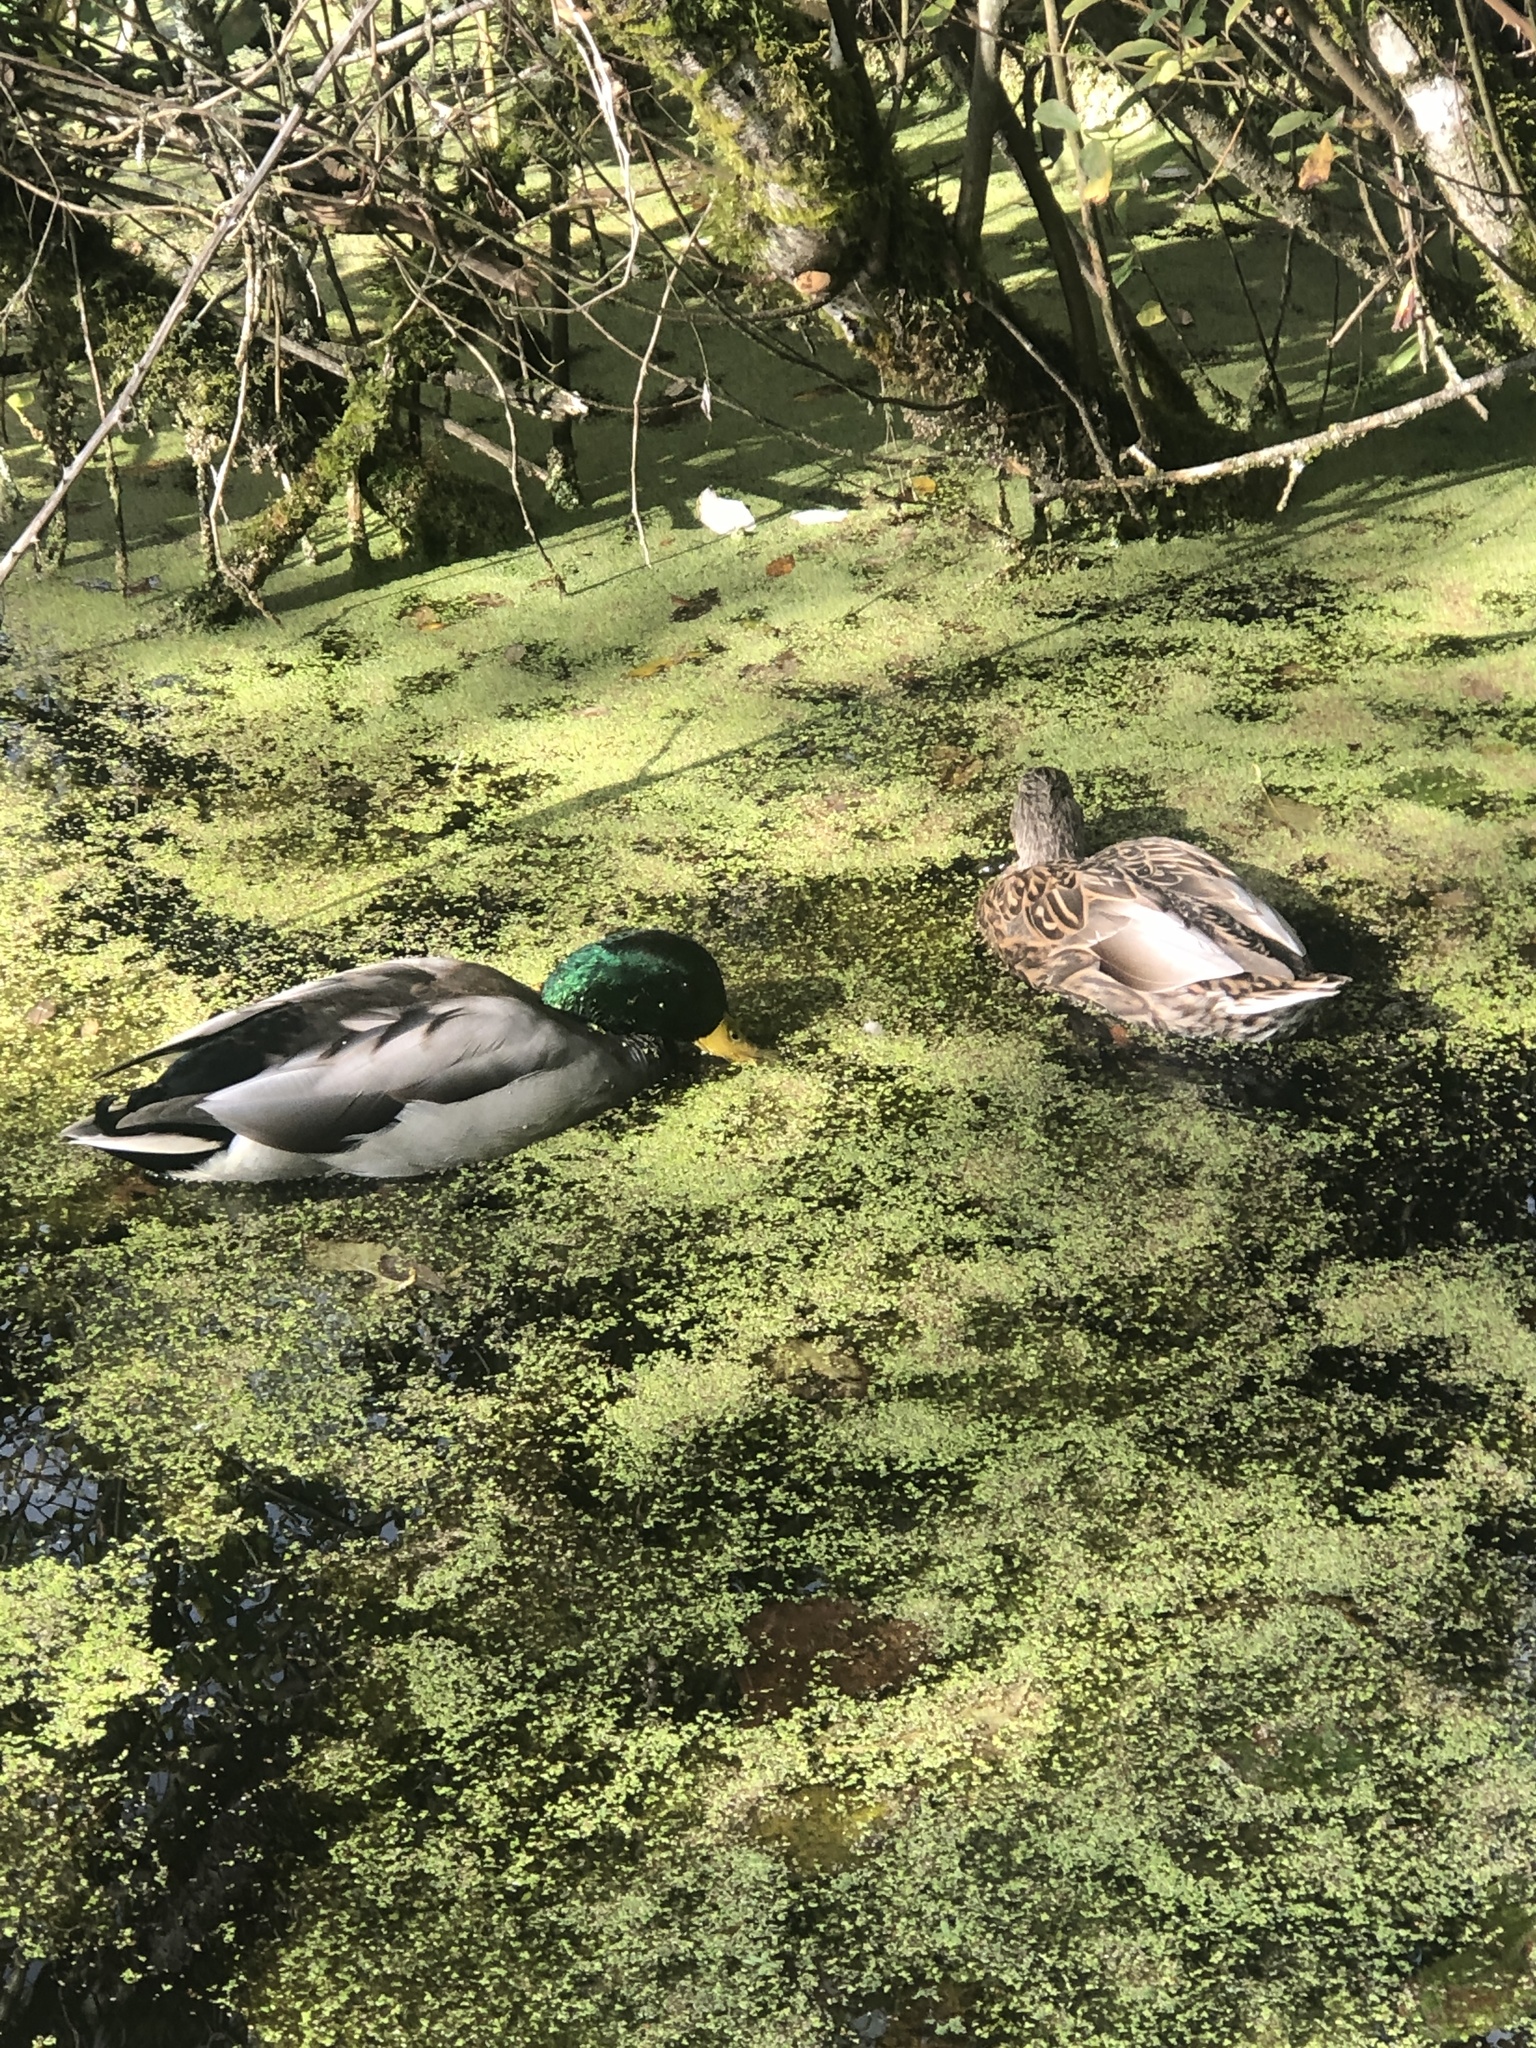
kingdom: Animalia
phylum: Chordata
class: Aves
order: Anseriformes
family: Anatidae
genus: Anas
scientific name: Anas platyrhynchos
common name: Mallard
